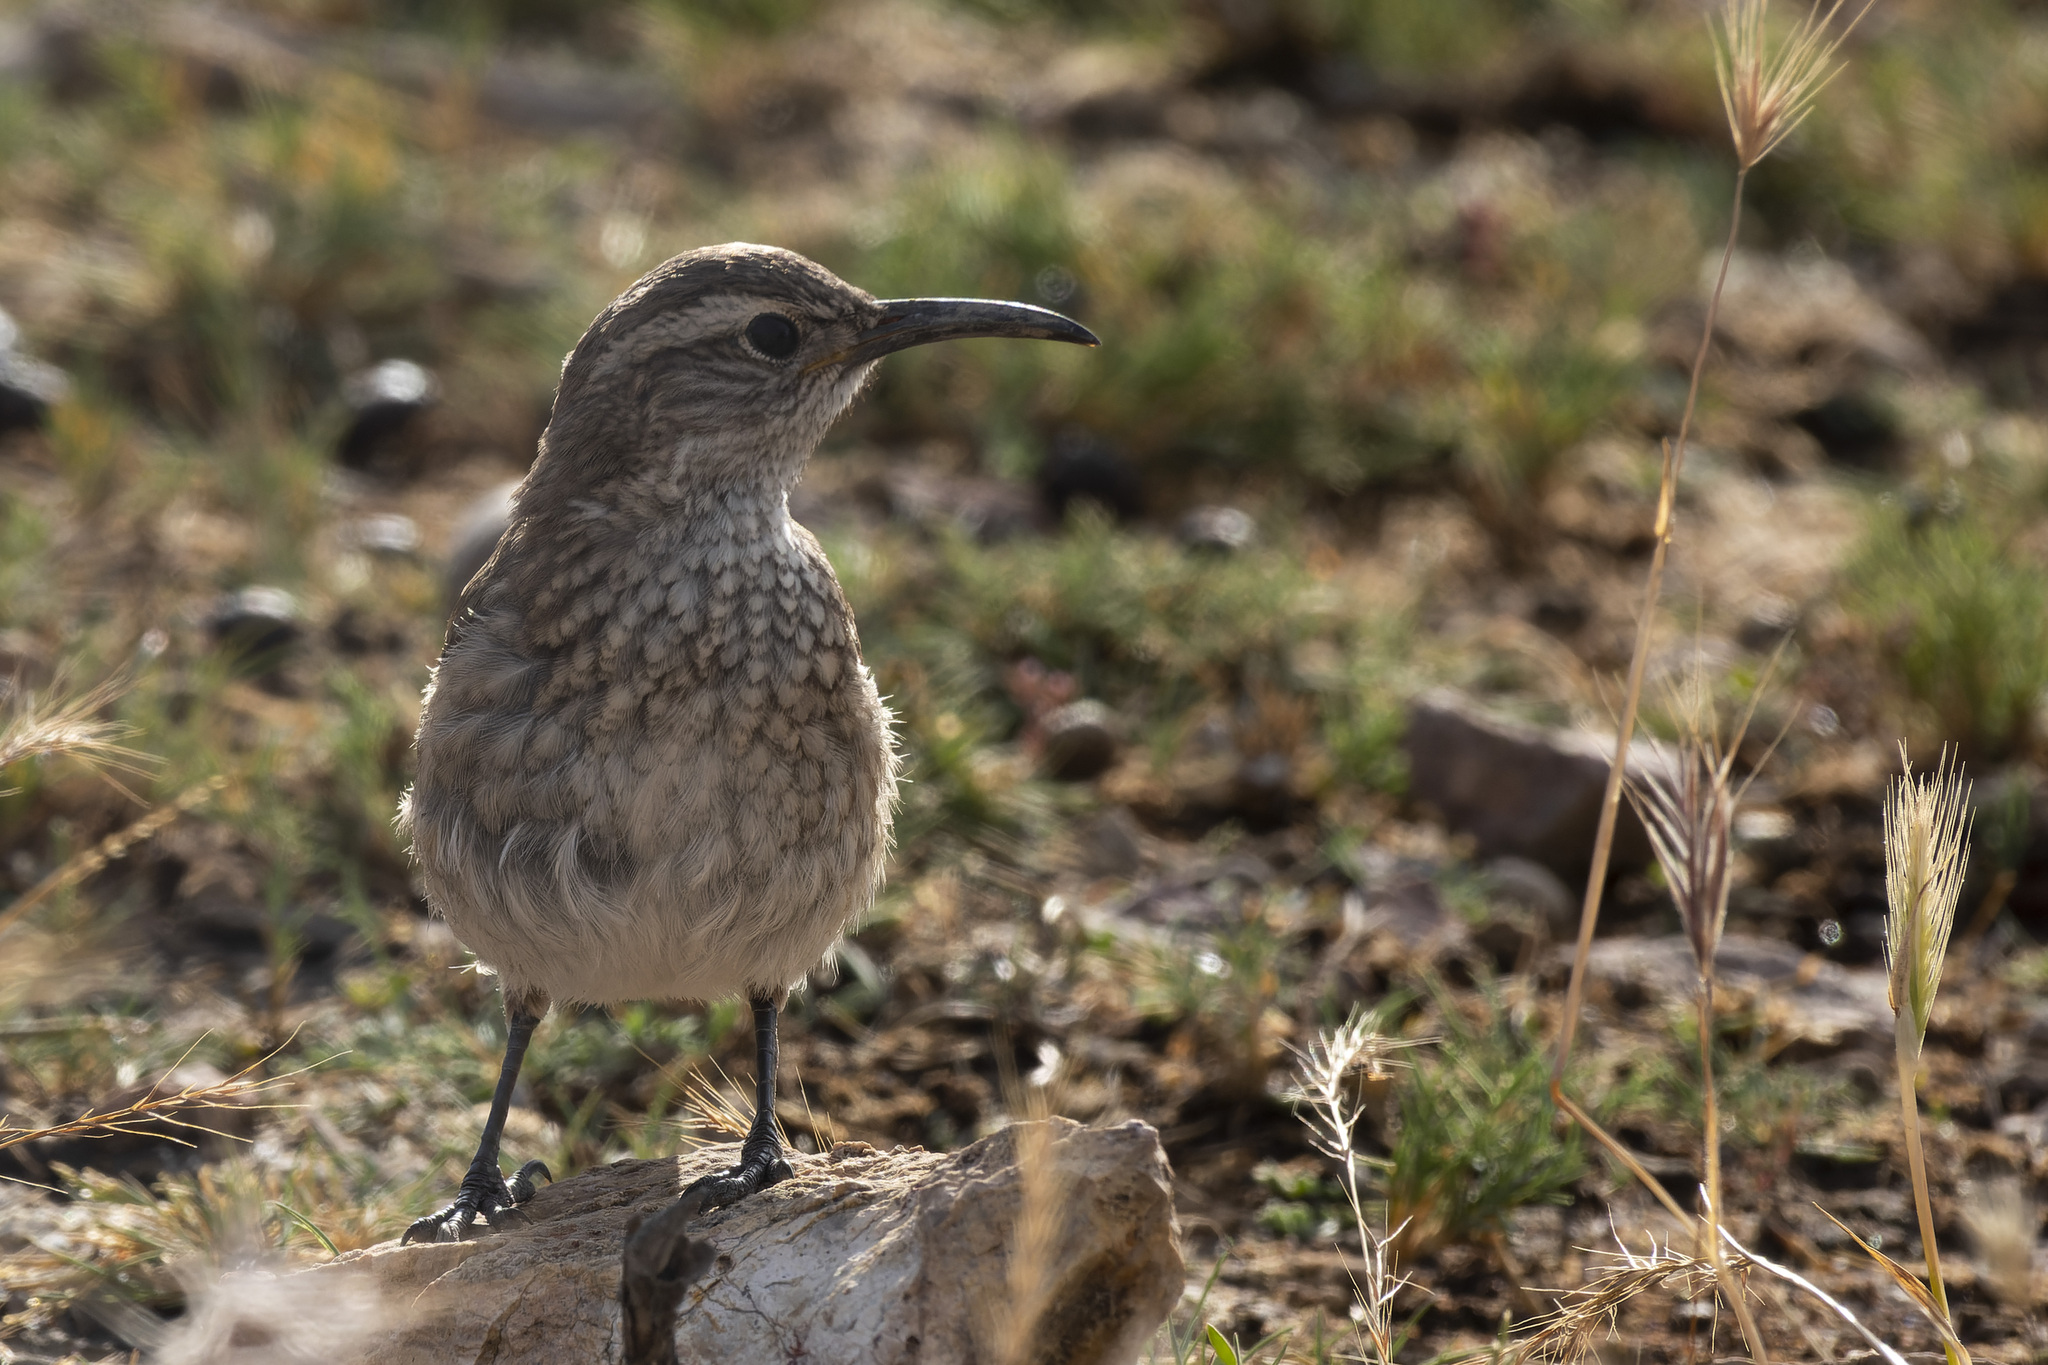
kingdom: Animalia
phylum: Chordata
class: Aves
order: Passeriformes
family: Furnariidae
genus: Upucerthia
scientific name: Upucerthia dumetaria
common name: Scale-throated earthcreeper
